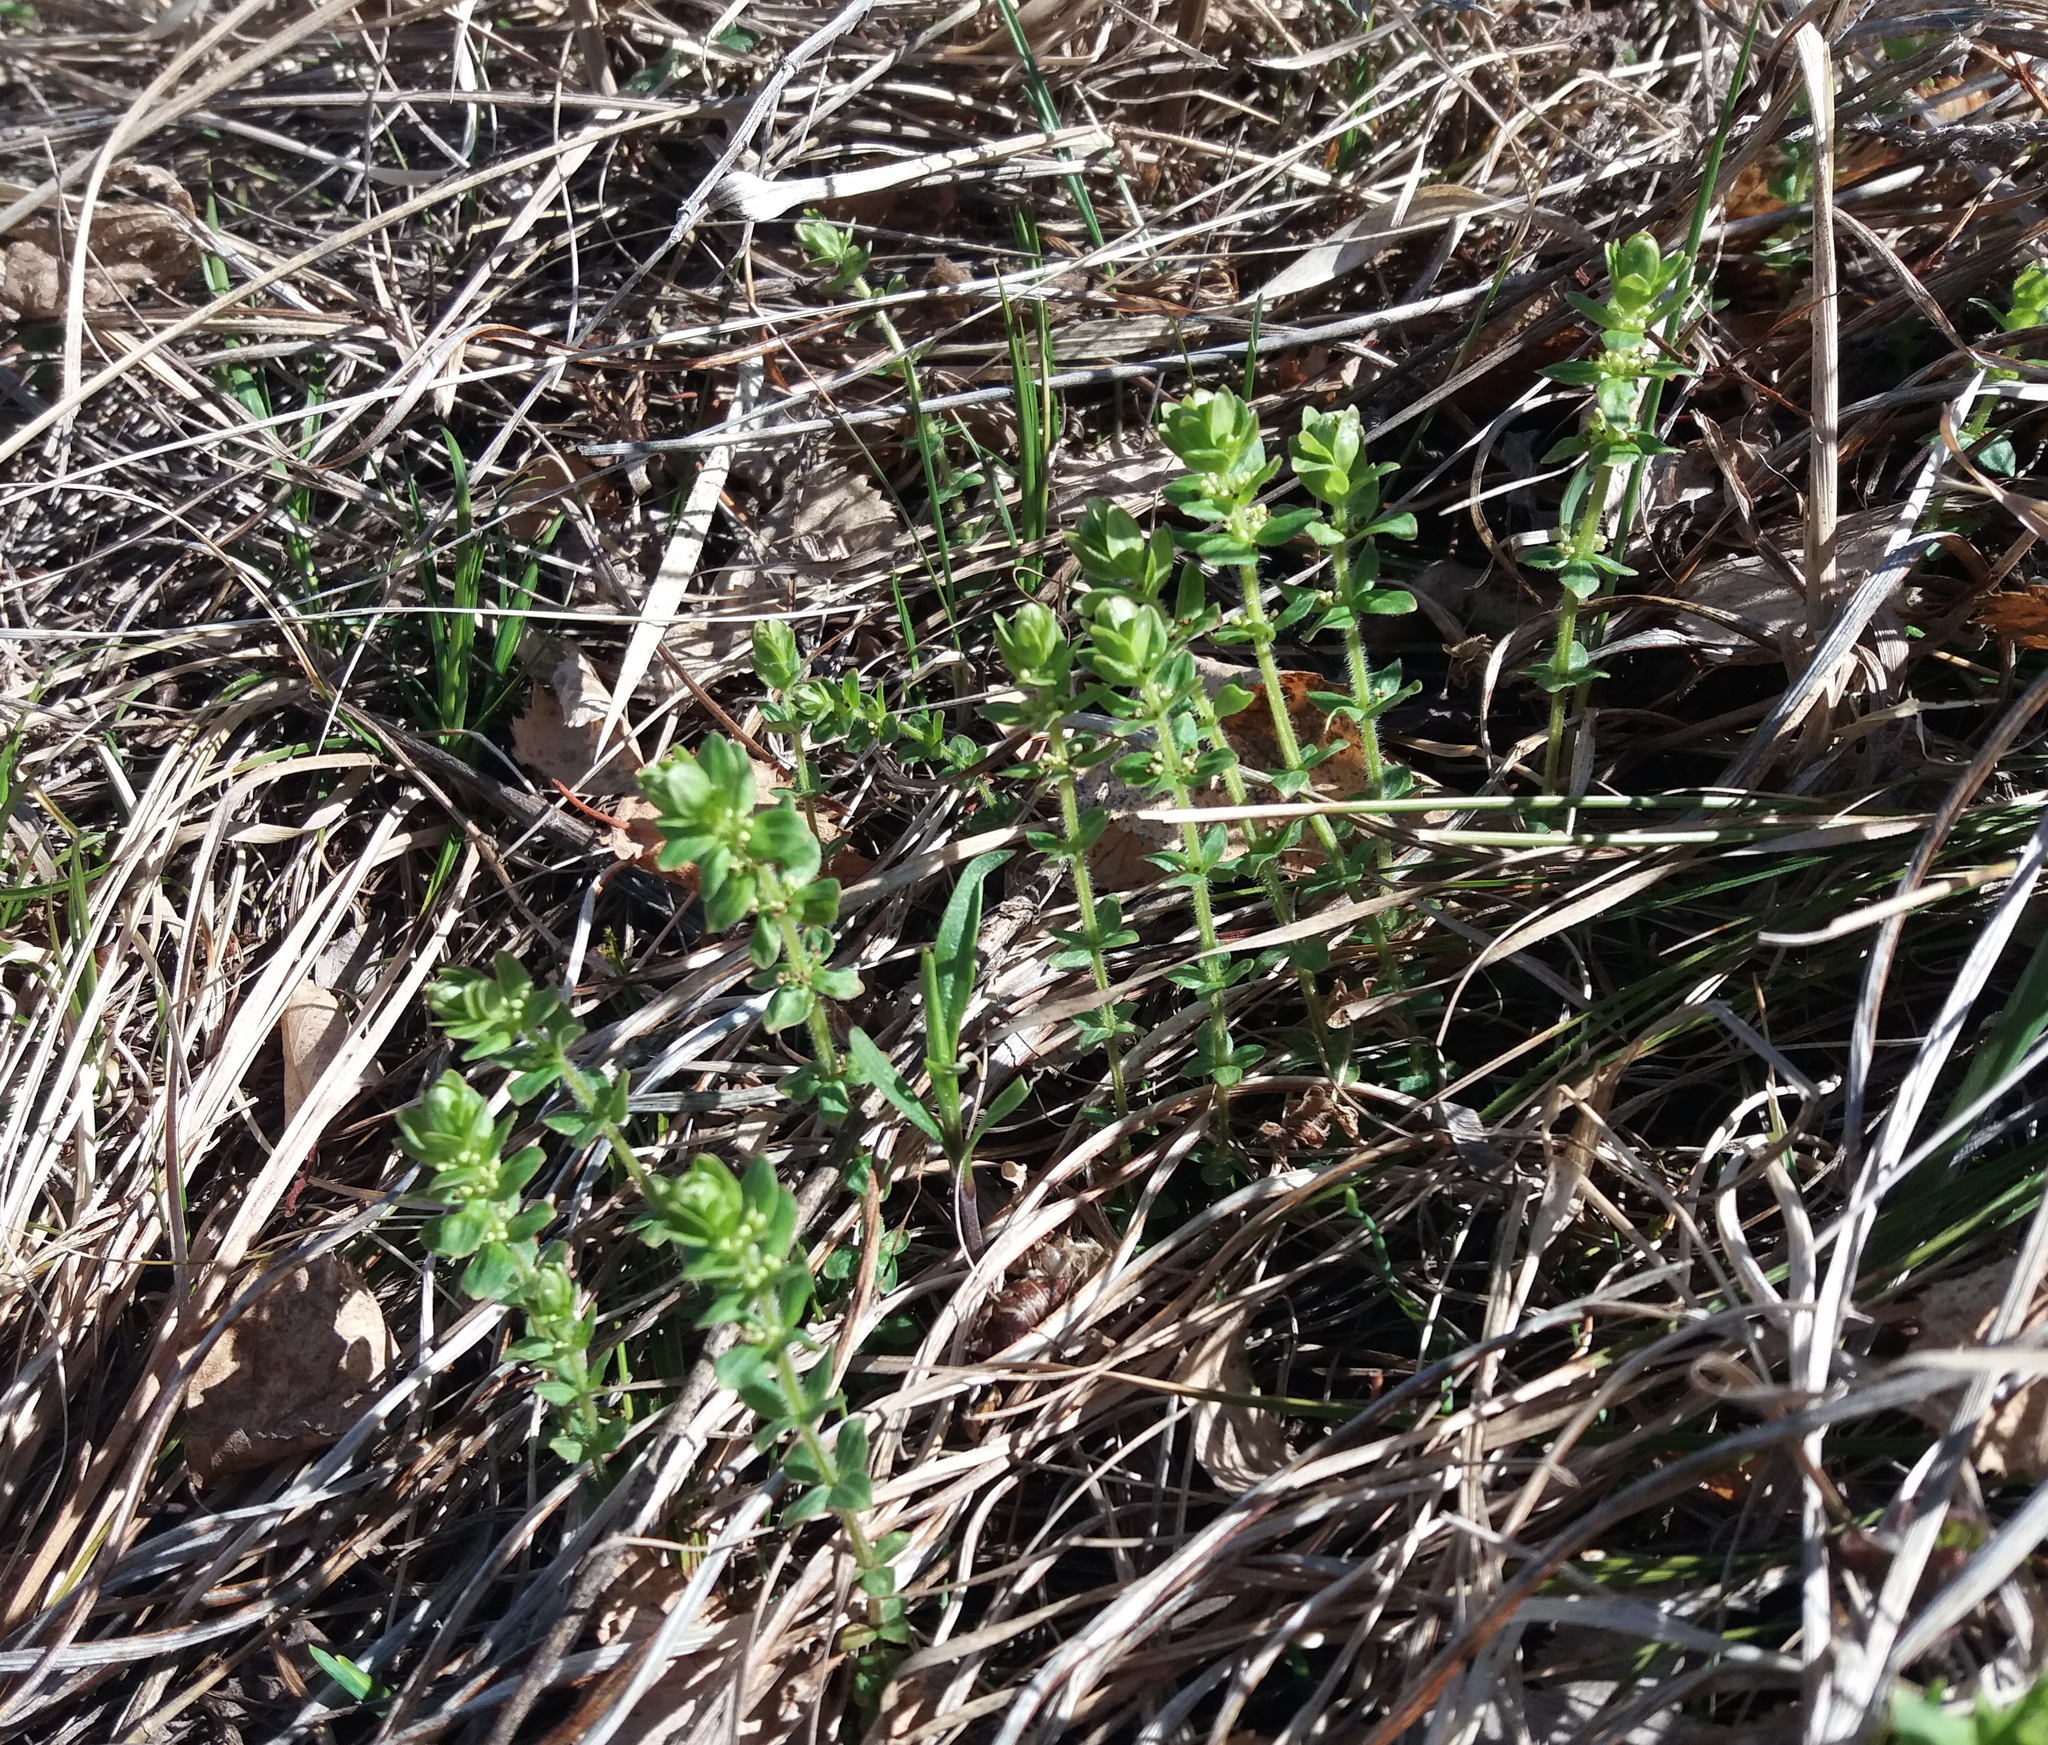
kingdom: Plantae
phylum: Tracheophyta
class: Magnoliopsida
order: Gentianales
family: Rubiaceae
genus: Cruciata
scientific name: Cruciata glabra
